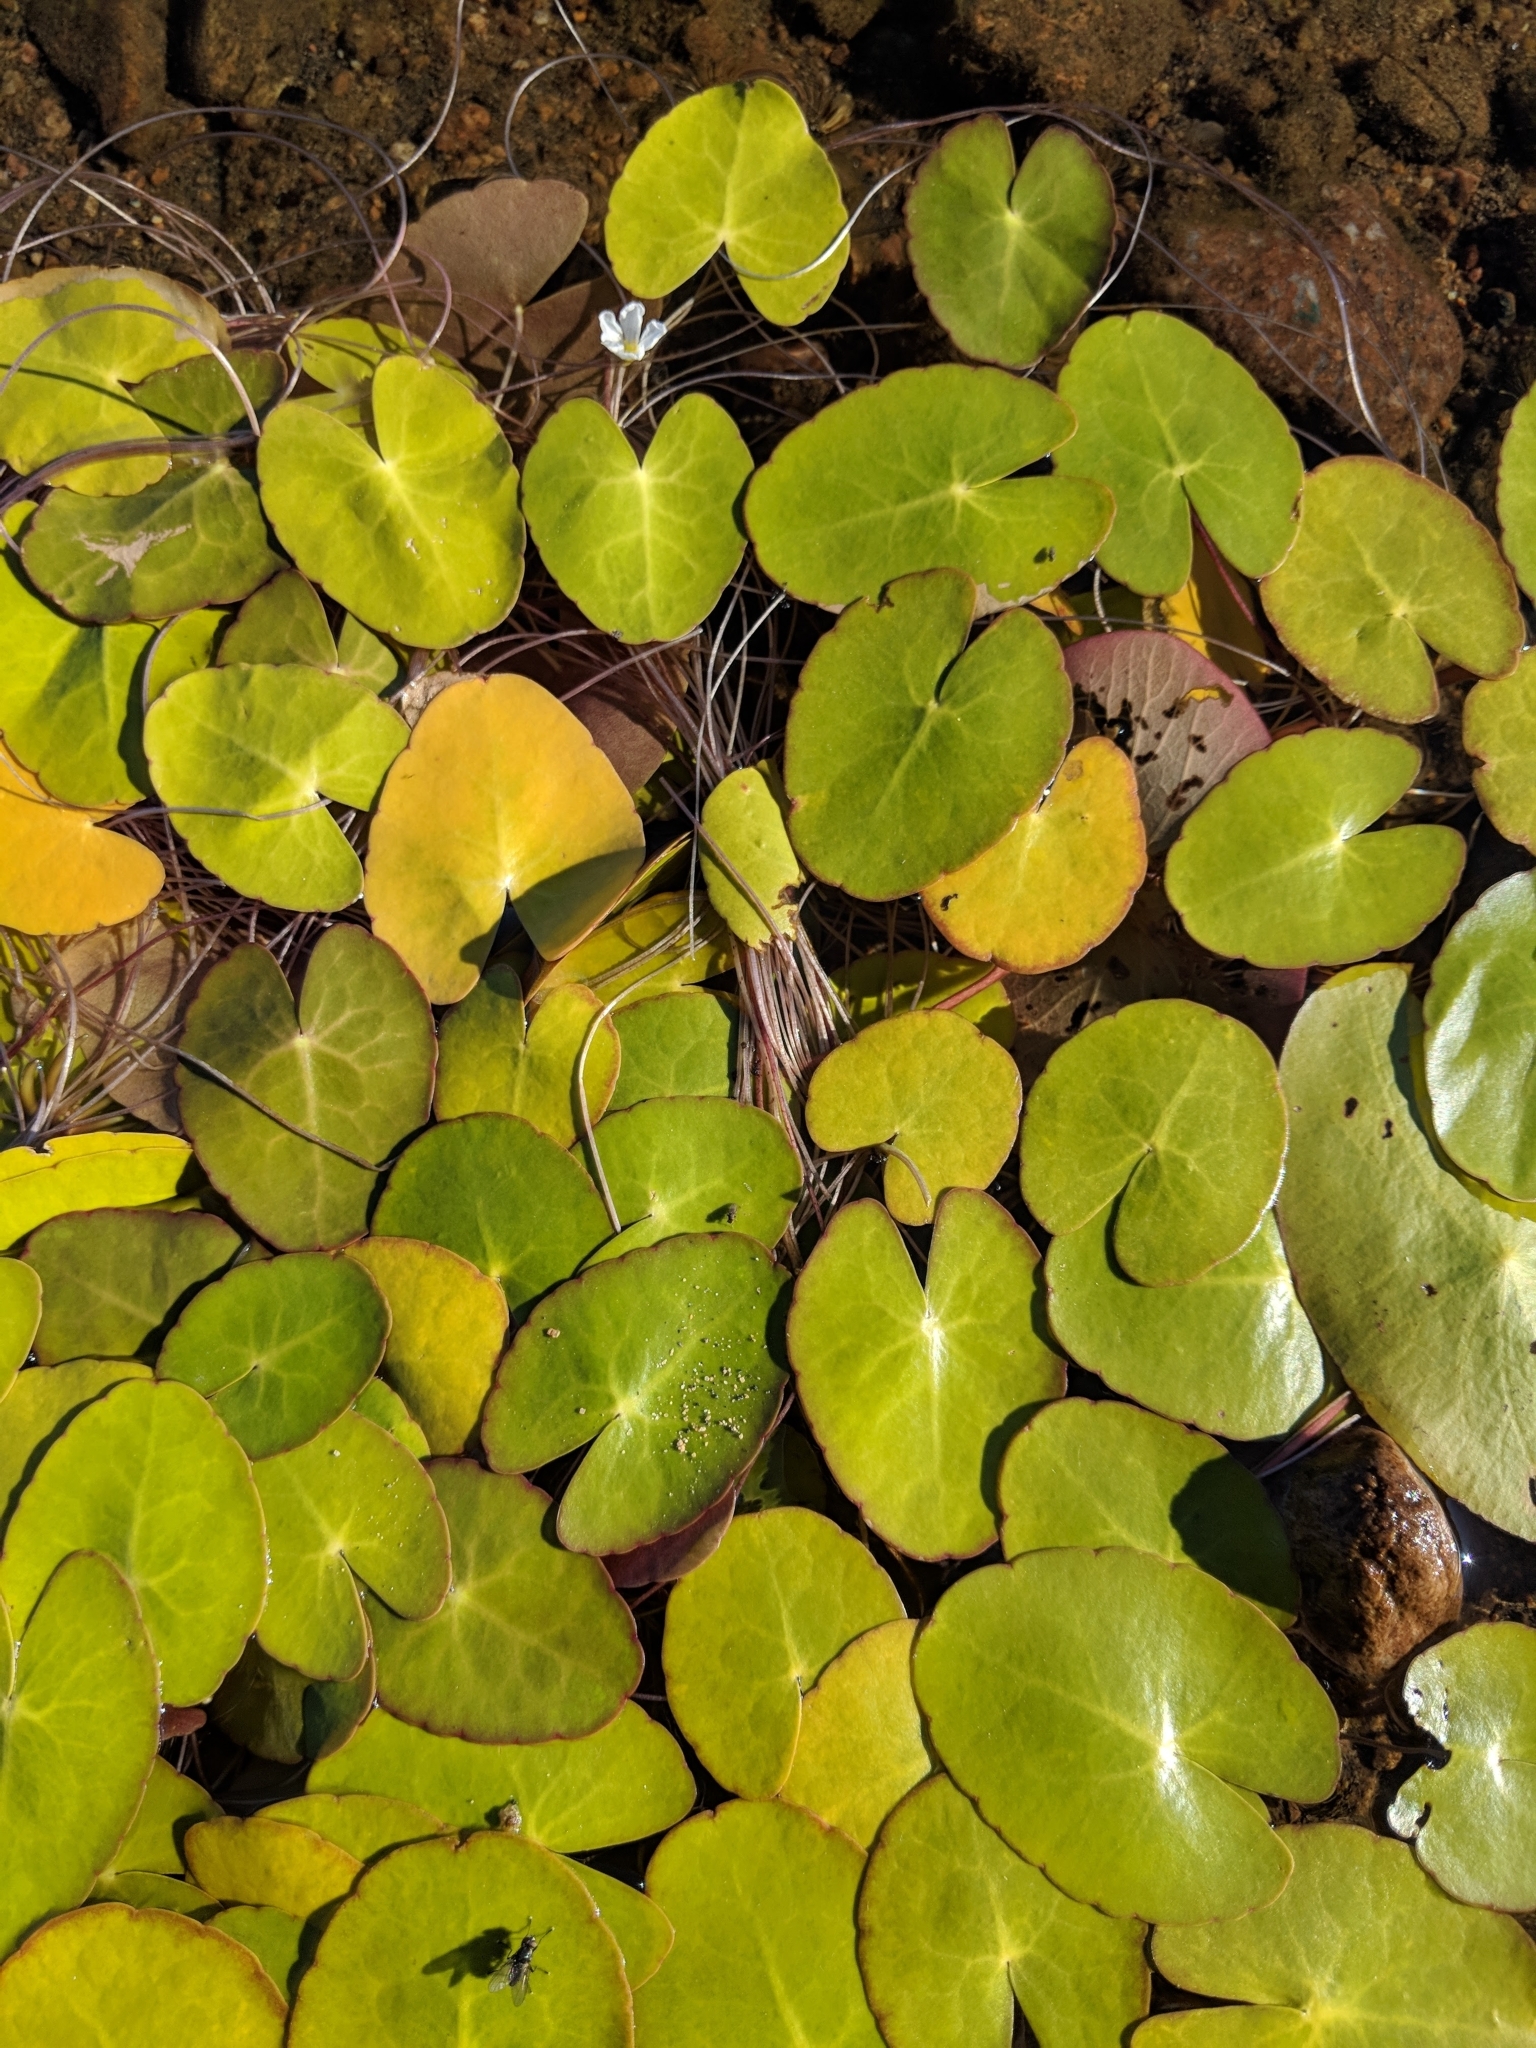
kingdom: Plantae
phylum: Tracheophyta
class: Magnoliopsida
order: Asterales
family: Menyanthaceae
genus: Nymphoides
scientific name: Nymphoides cordata
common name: Eight-angled floatingheart
